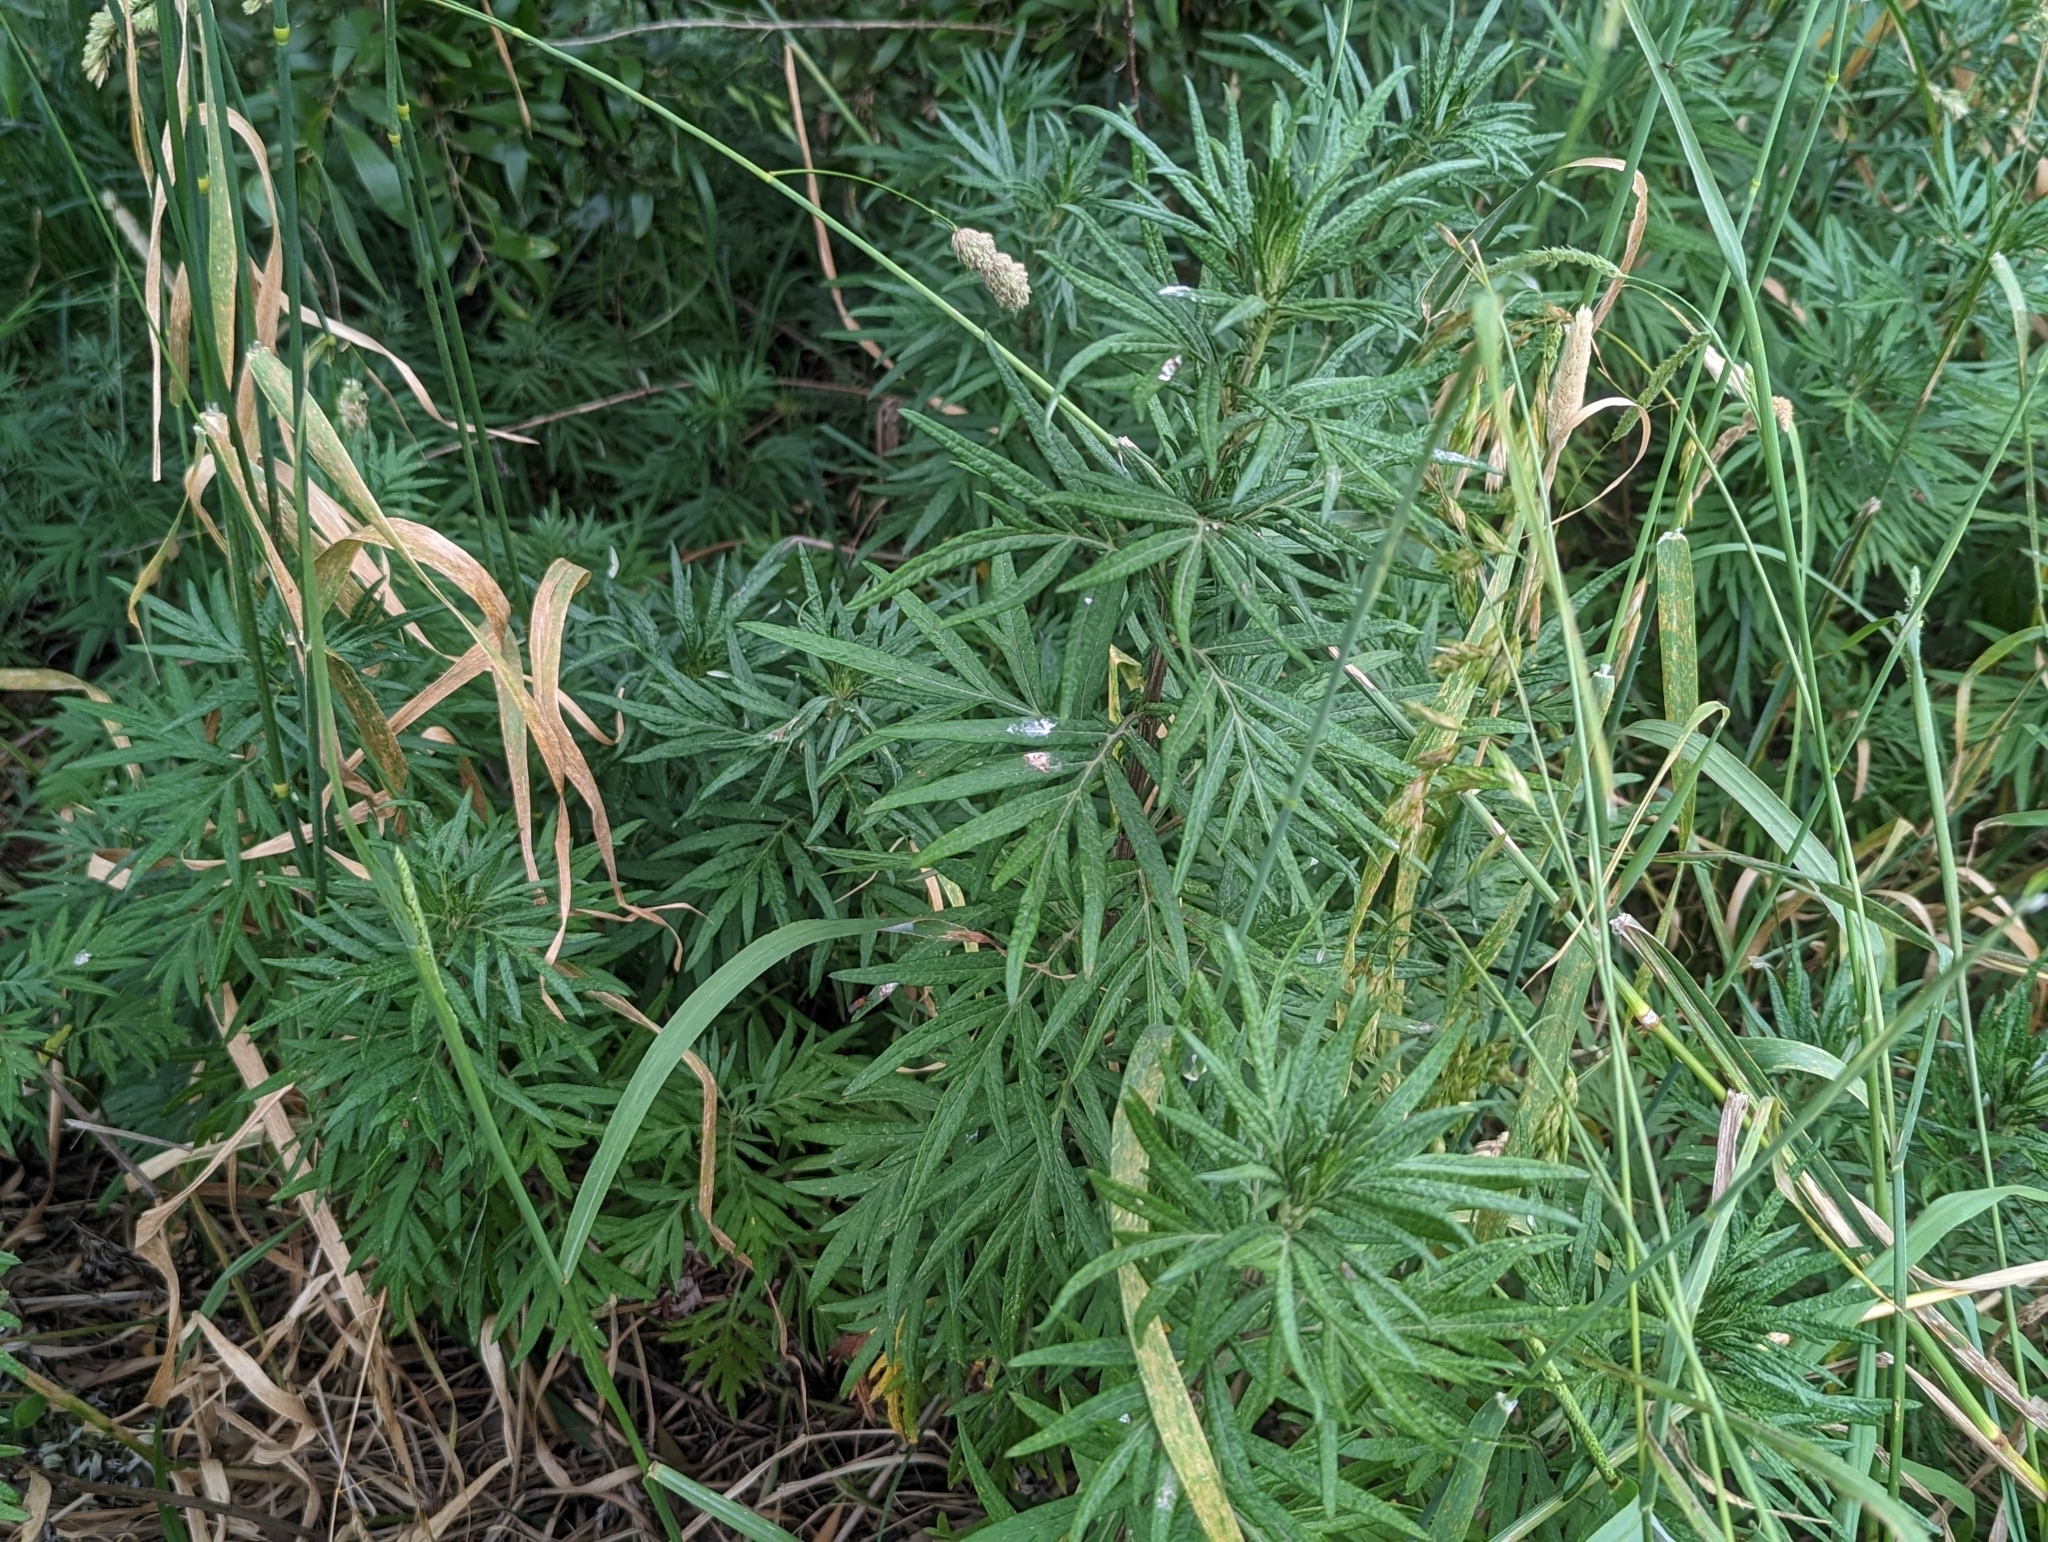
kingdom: Plantae
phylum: Tracheophyta
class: Magnoliopsida
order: Asterales
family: Asteraceae
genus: Artemisia
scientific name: Artemisia verlotiorum
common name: Chinese mugwort
